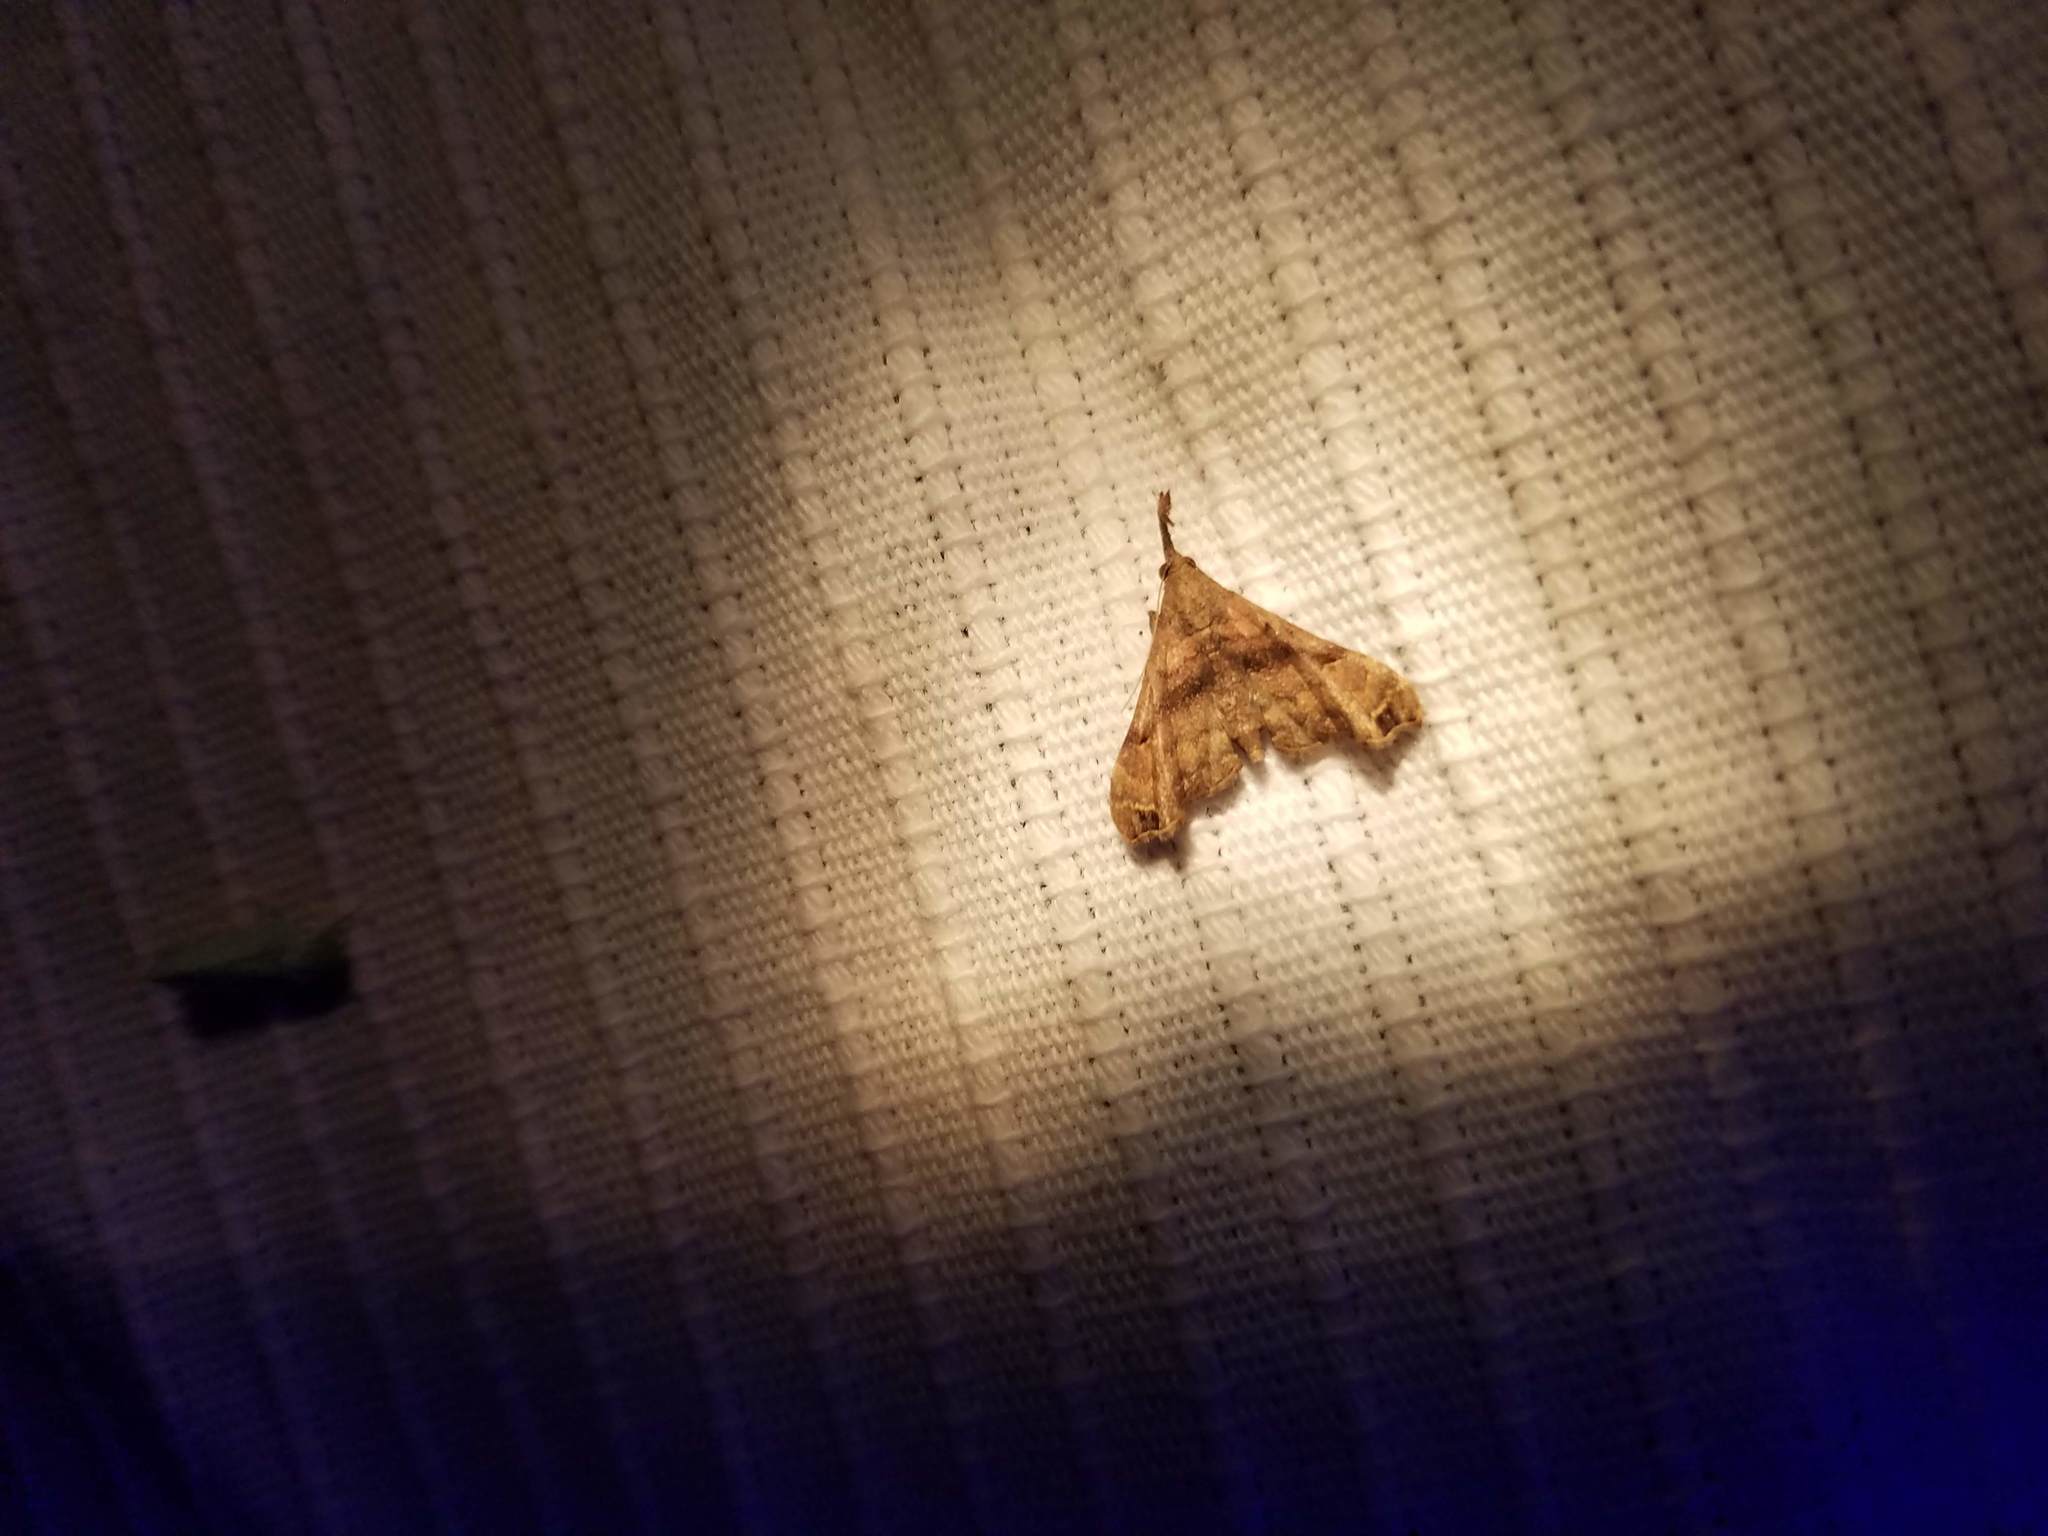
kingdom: Animalia
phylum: Arthropoda
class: Insecta
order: Lepidoptera
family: Erebidae
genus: Palthis
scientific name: Palthis asopialis
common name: Faint-spotted palthis moth
